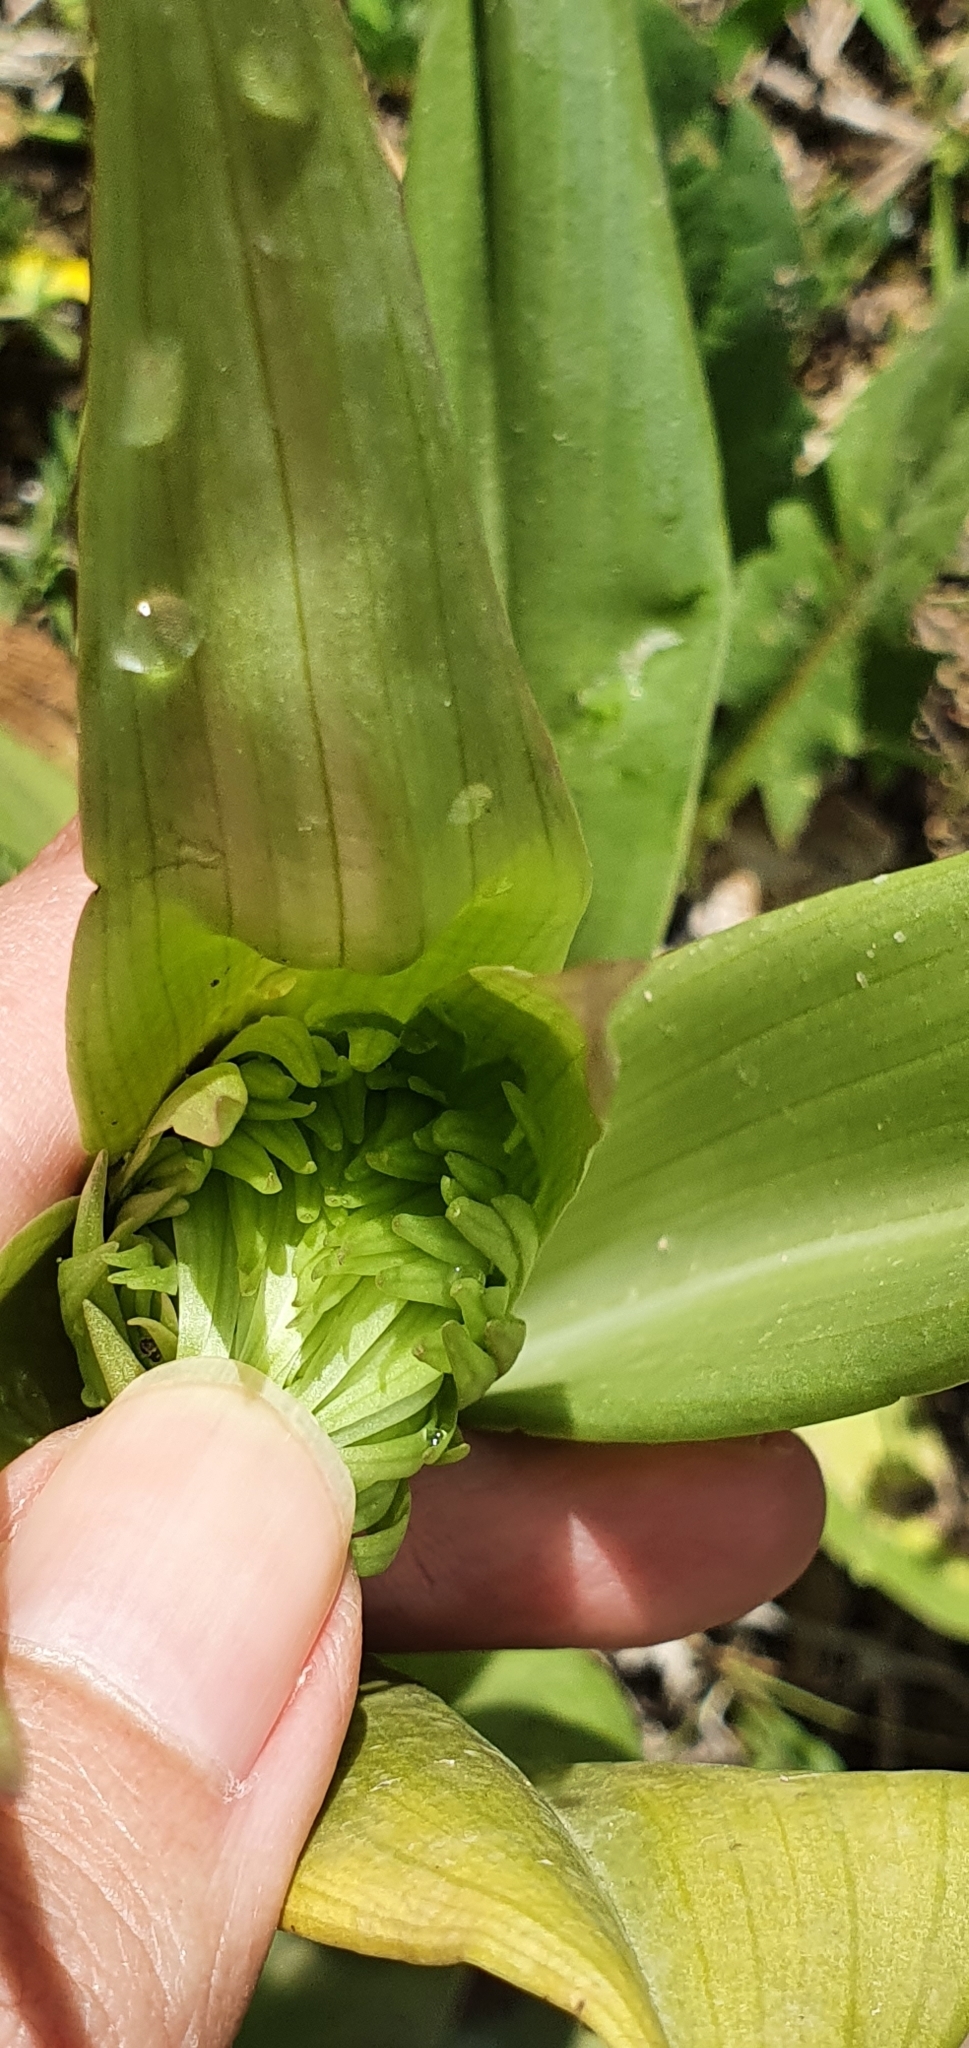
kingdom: Plantae
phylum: Tracheophyta
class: Liliopsida
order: Asparagales
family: Orchidaceae
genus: Himantoglossum
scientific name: Himantoglossum hircinum
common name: Lizard orchid
